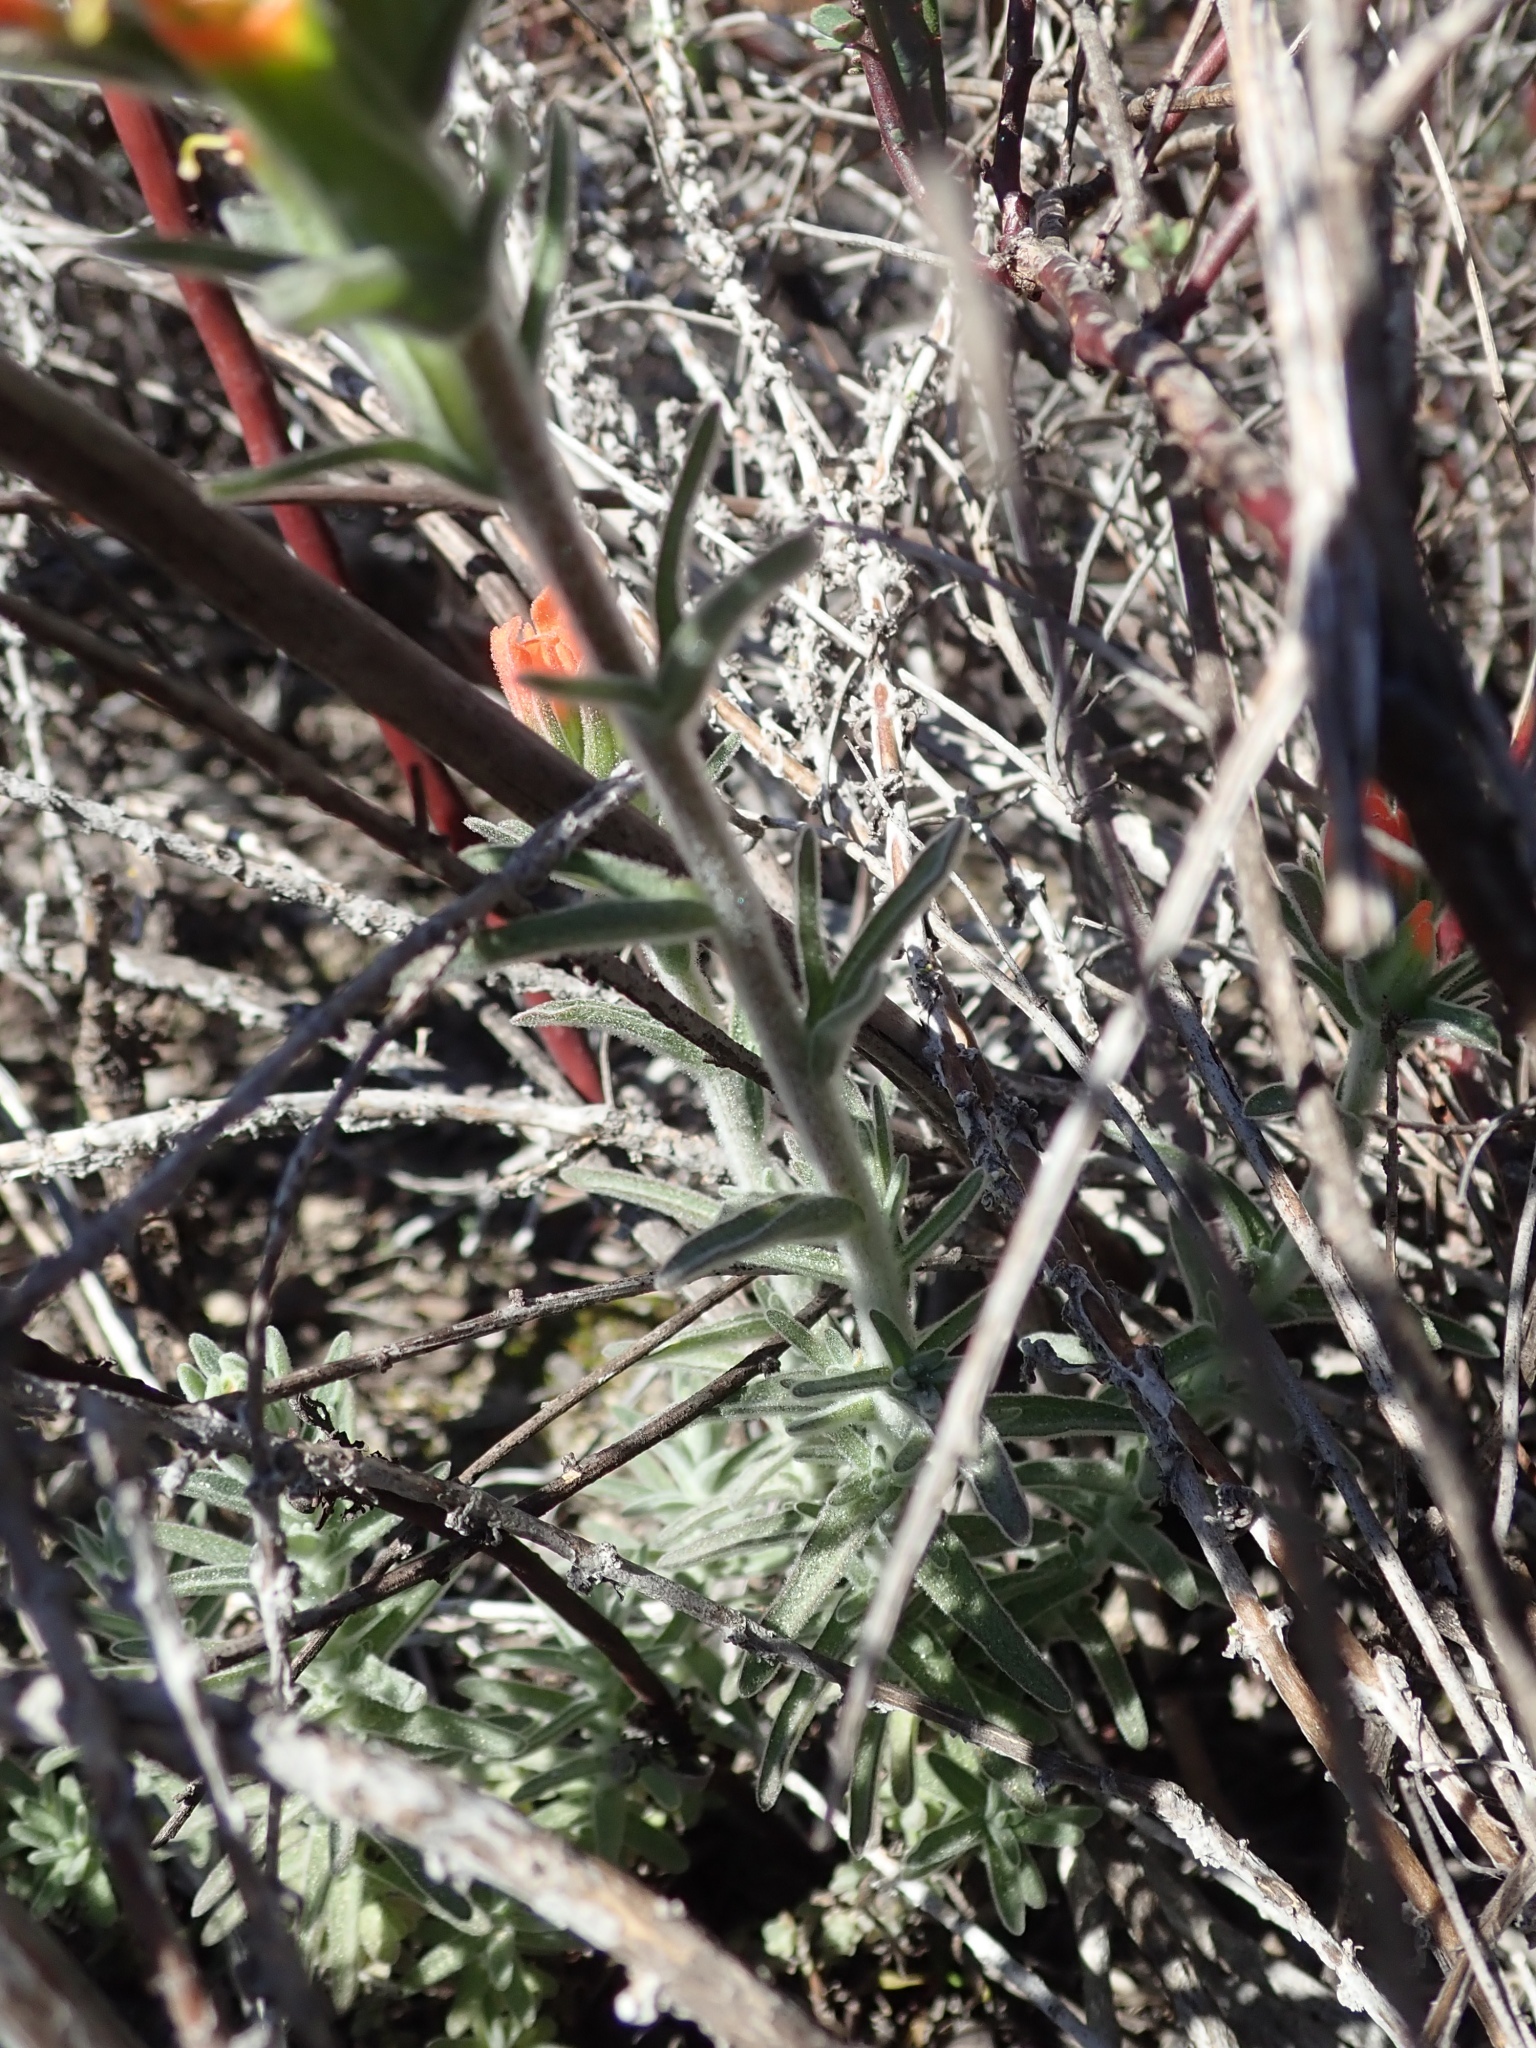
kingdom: Plantae
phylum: Tracheophyta
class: Magnoliopsida
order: Lamiales
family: Orobanchaceae
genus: Castilleja
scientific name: Castilleja foliolosa
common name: Woolly indian paintbrush
